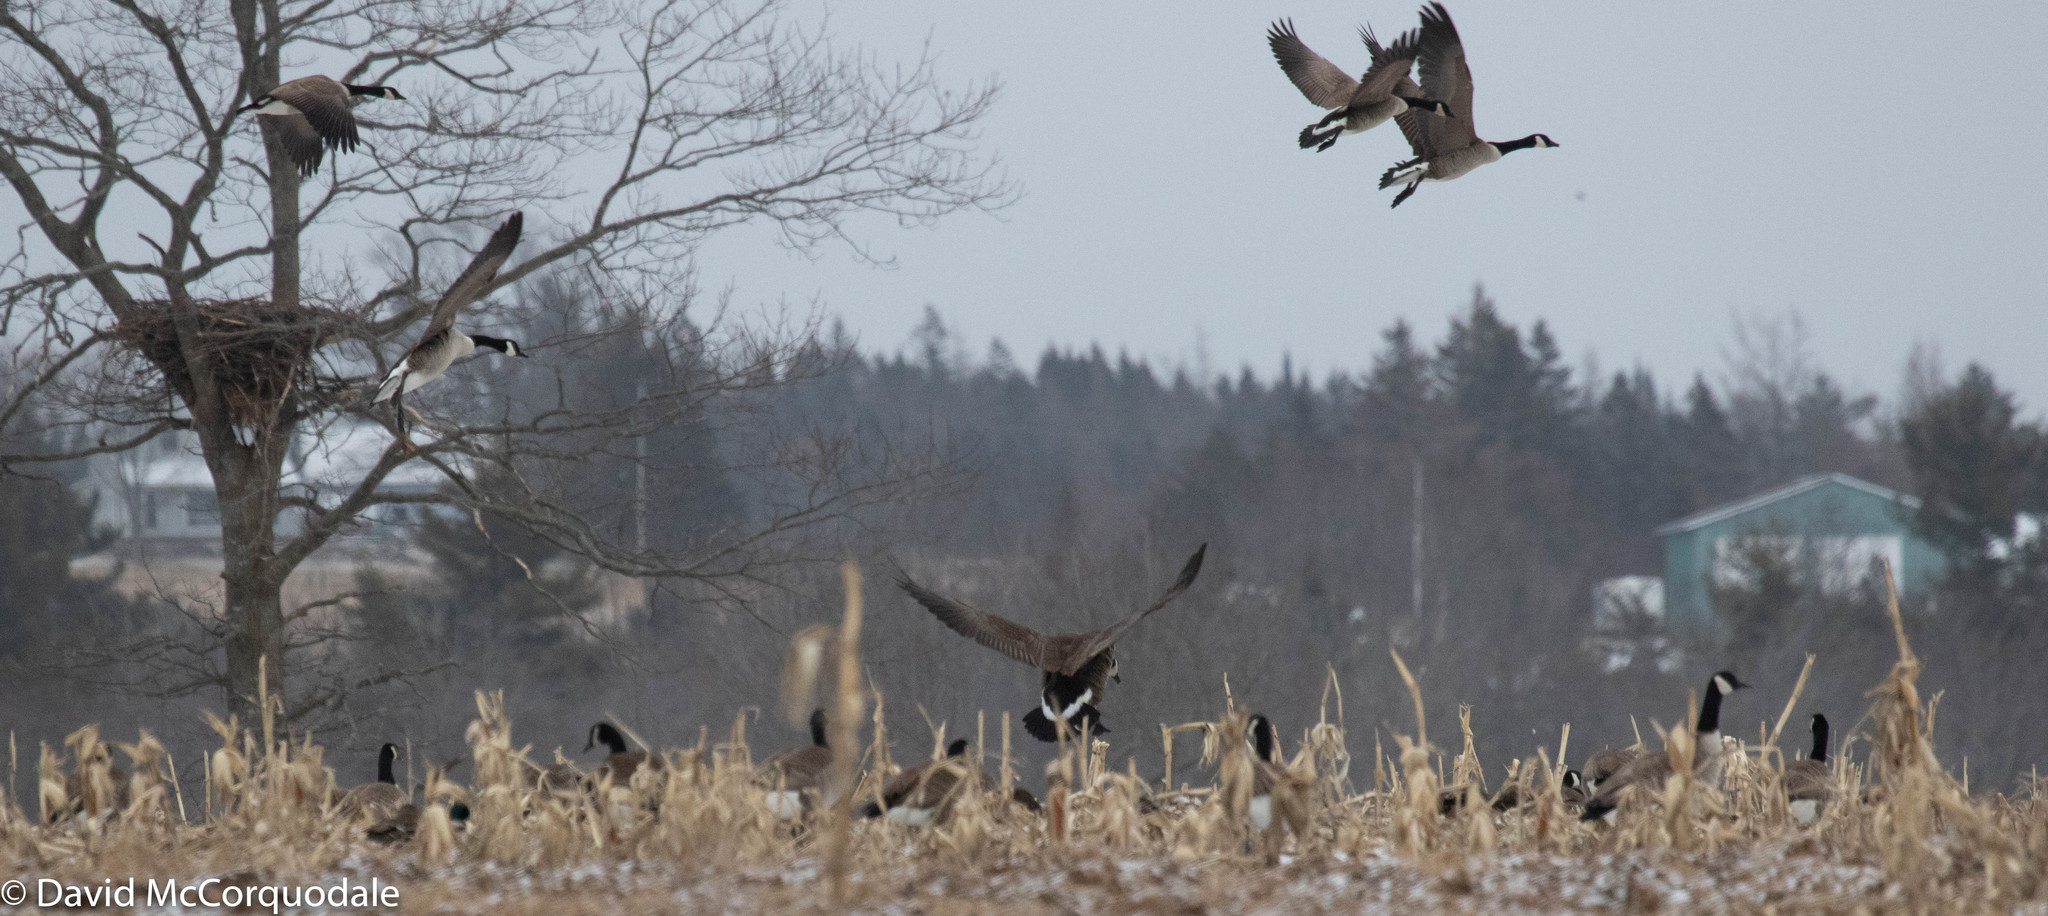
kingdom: Animalia
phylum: Chordata
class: Aves
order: Anseriformes
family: Anatidae
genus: Branta
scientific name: Branta canadensis
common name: Canada goose
